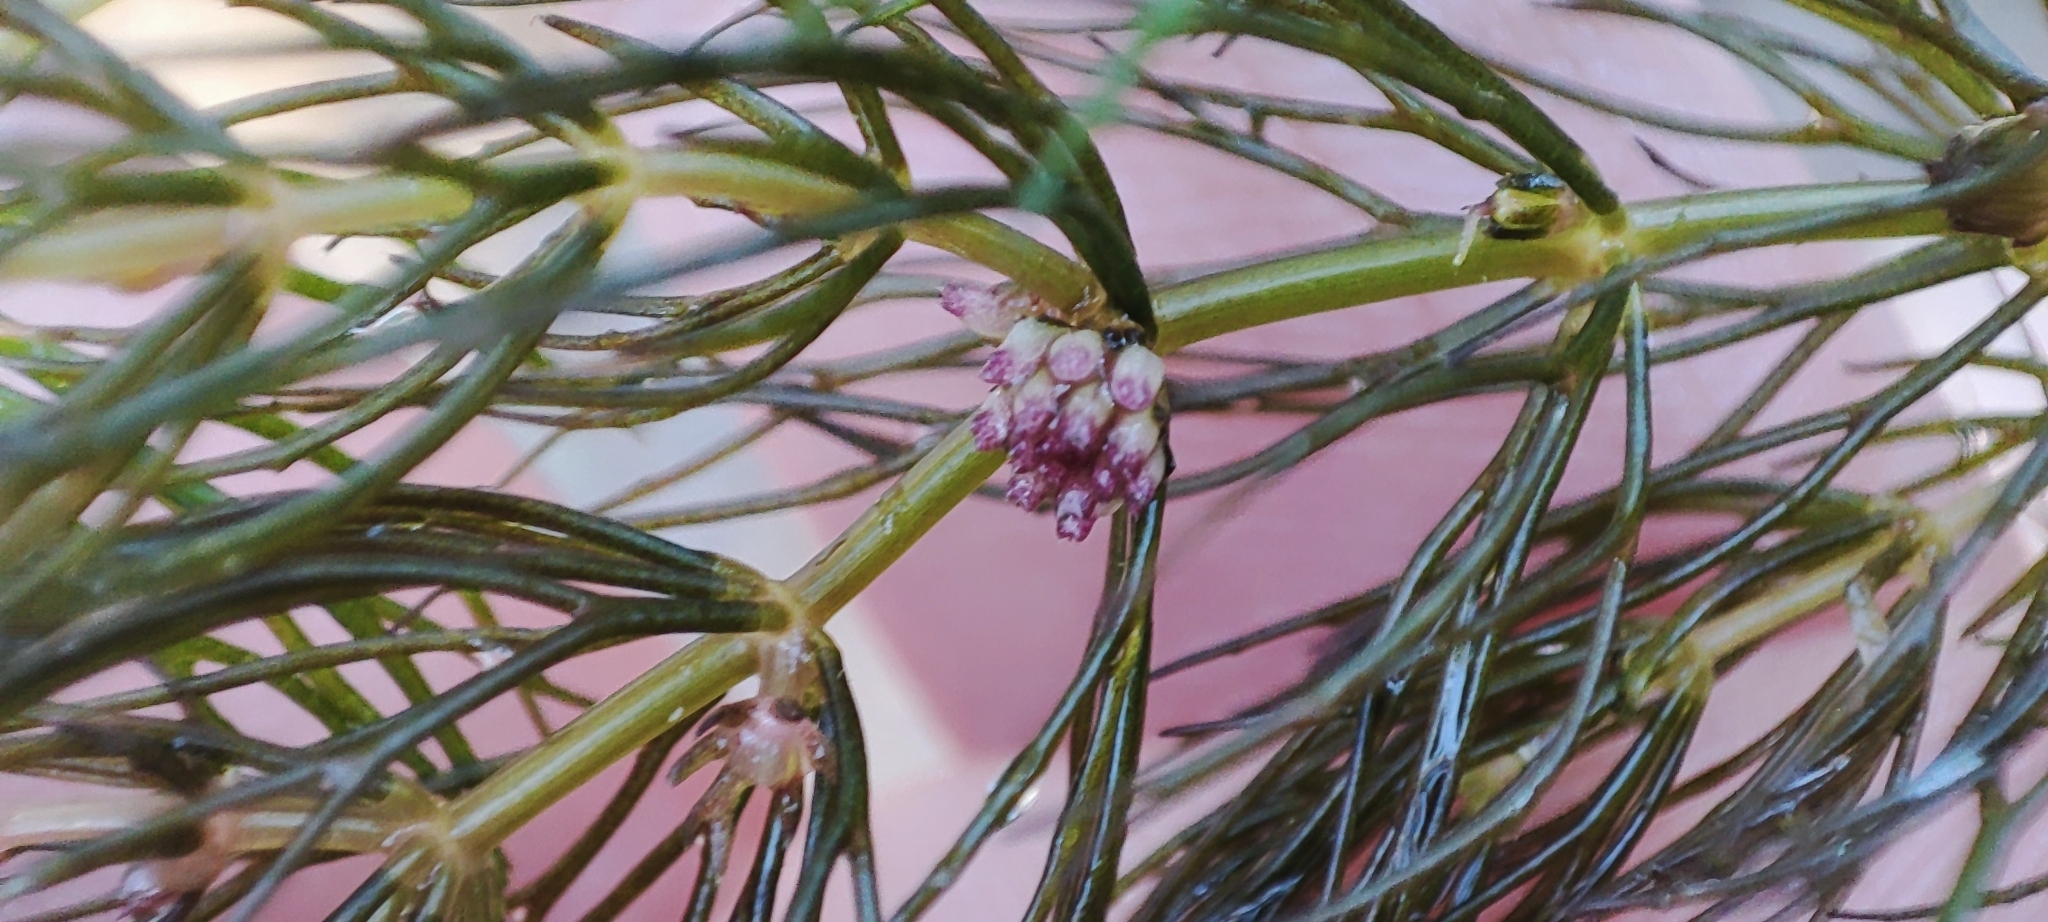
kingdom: Plantae
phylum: Tracheophyta
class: Magnoliopsida
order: Ceratophyllales
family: Ceratophyllaceae
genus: Ceratophyllum
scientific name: Ceratophyllum demersum
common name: Rigid hornwort
